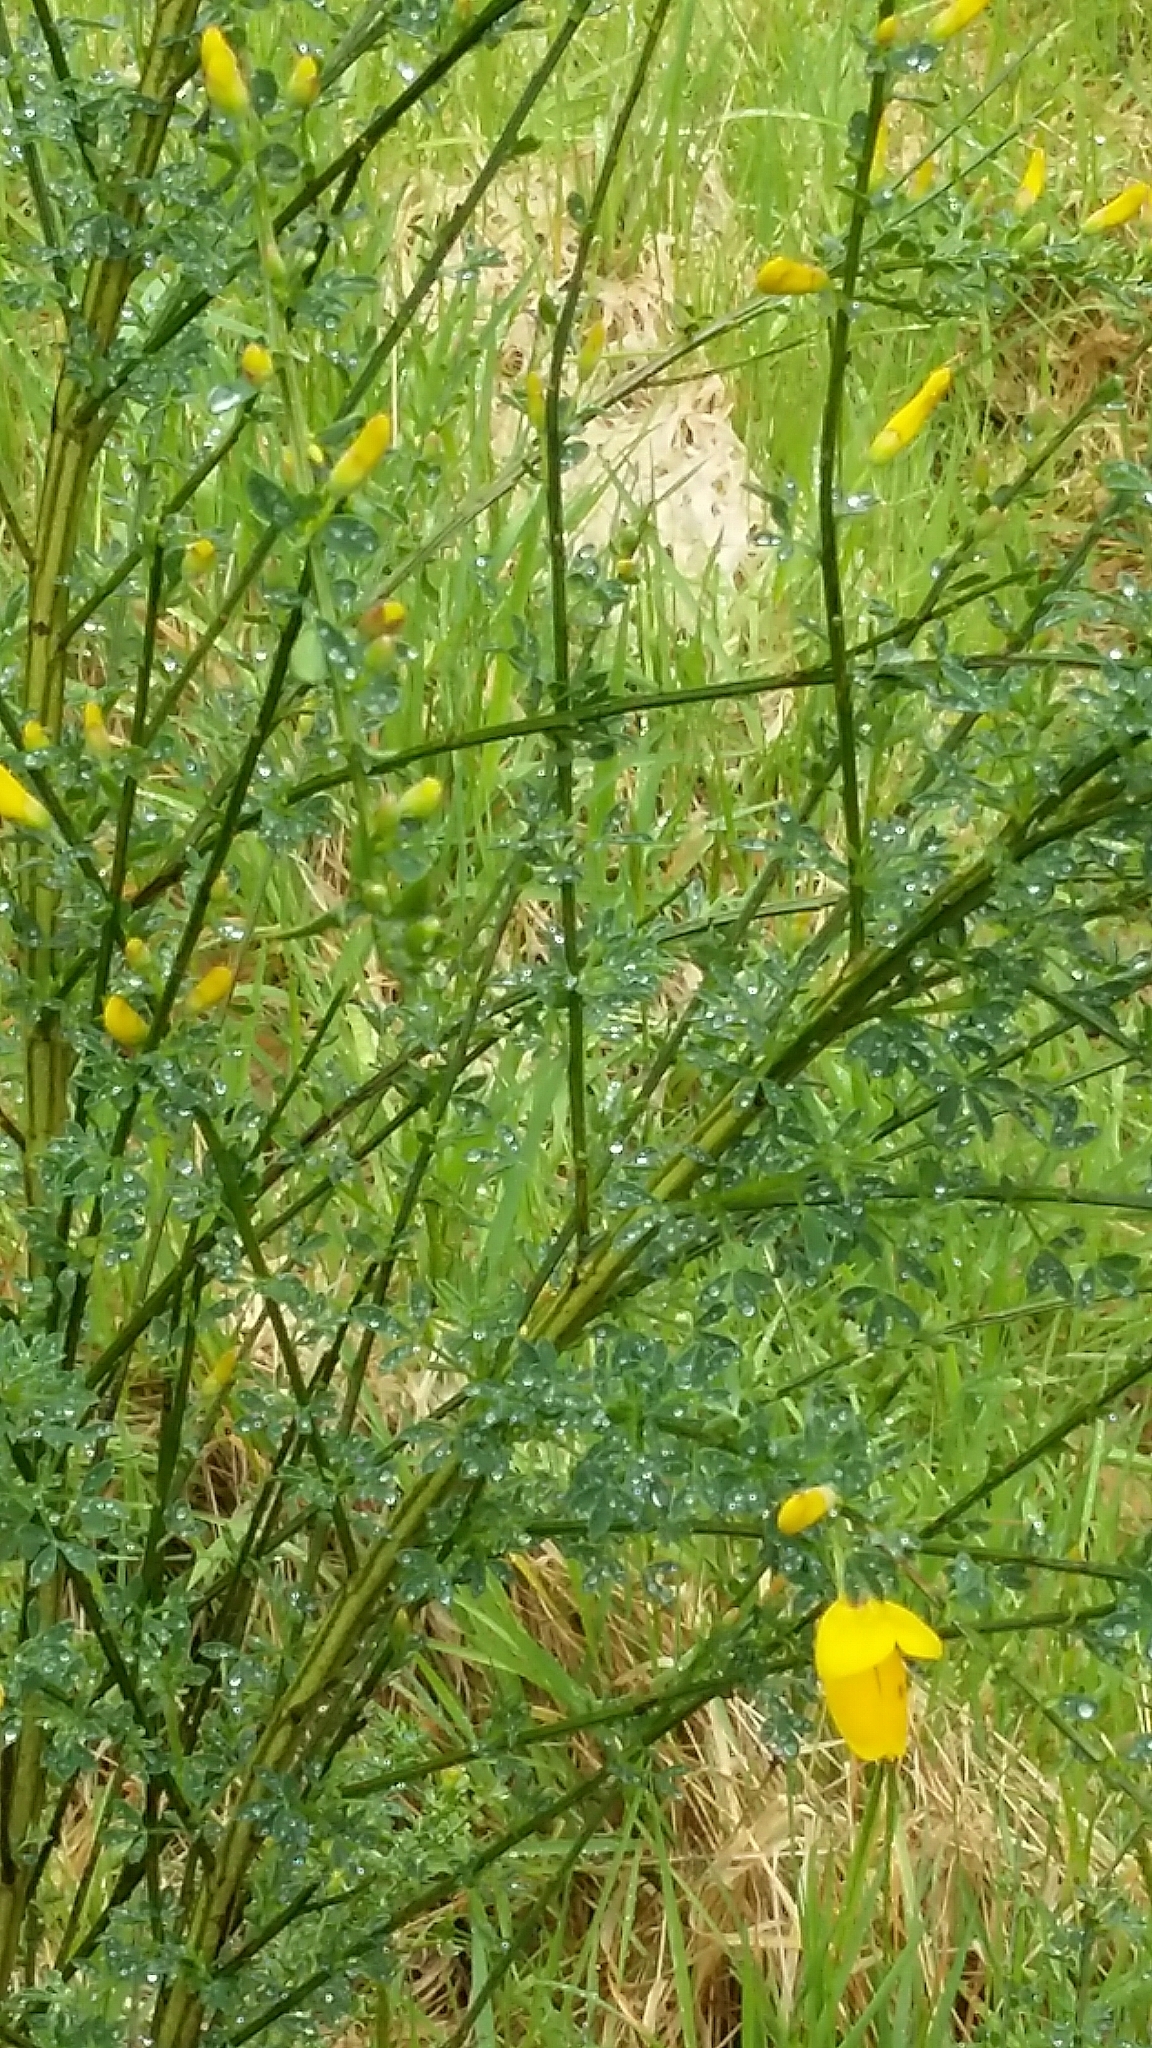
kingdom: Plantae
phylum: Tracheophyta
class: Magnoliopsida
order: Fabales
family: Fabaceae
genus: Cytisus
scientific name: Cytisus scoparius
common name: Scotch broom
